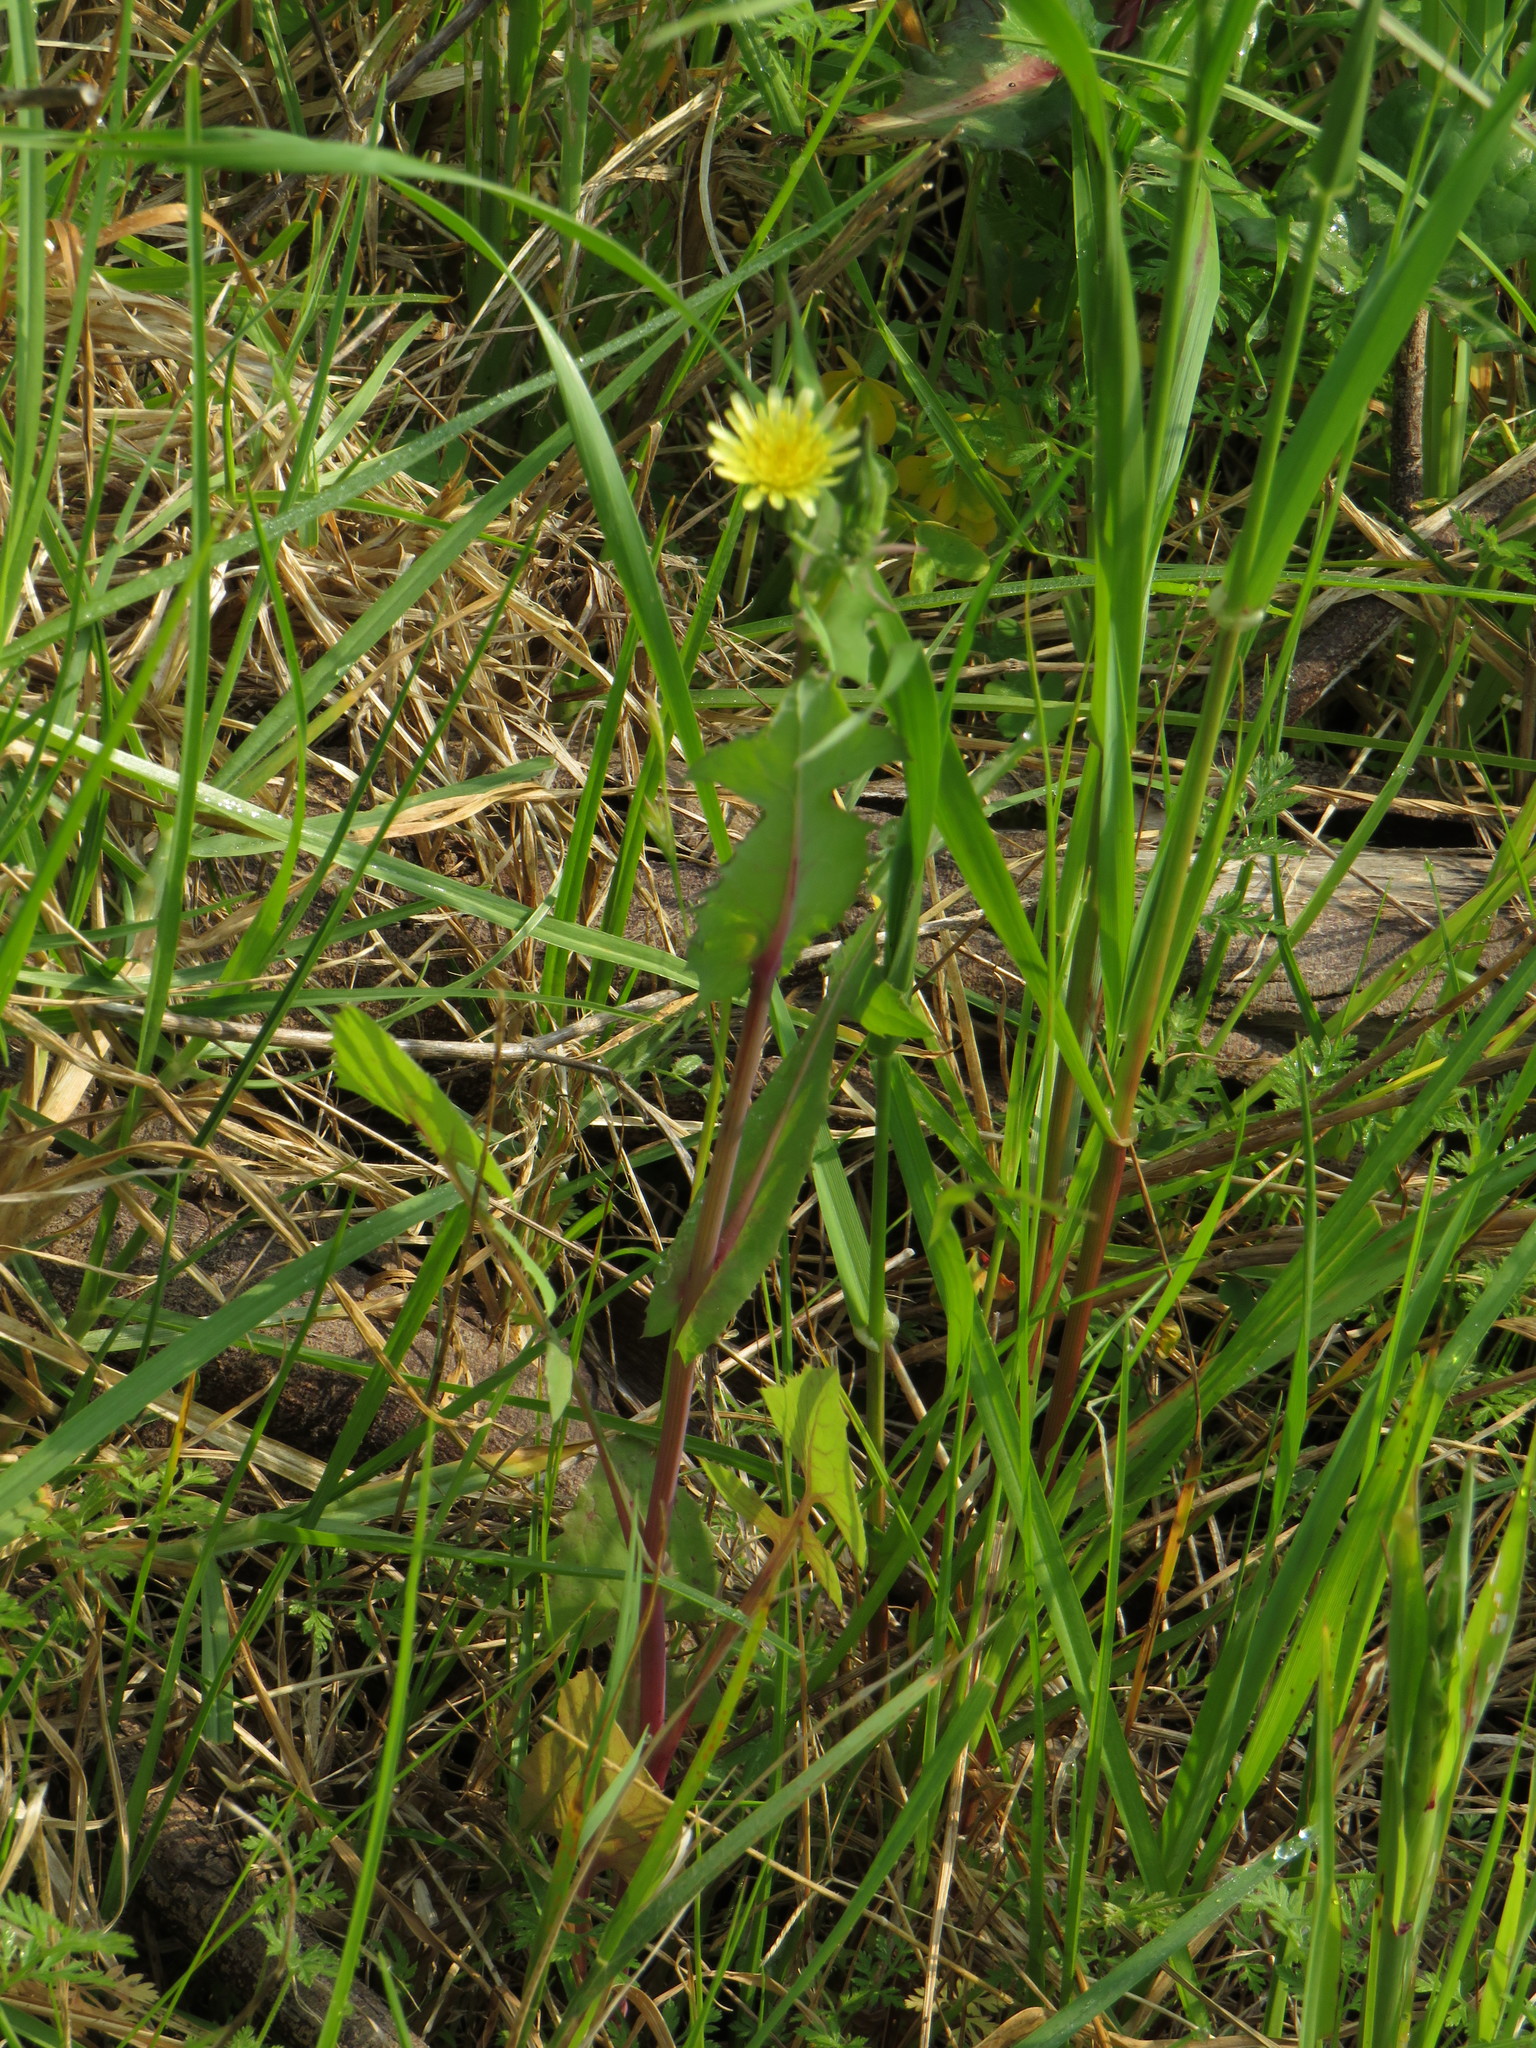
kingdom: Plantae
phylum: Tracheophyta
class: Magnoliopsida
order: Asterales
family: Asteraceae
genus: Sonchus
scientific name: Sonchus oleraceus
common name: Common sowthistle
